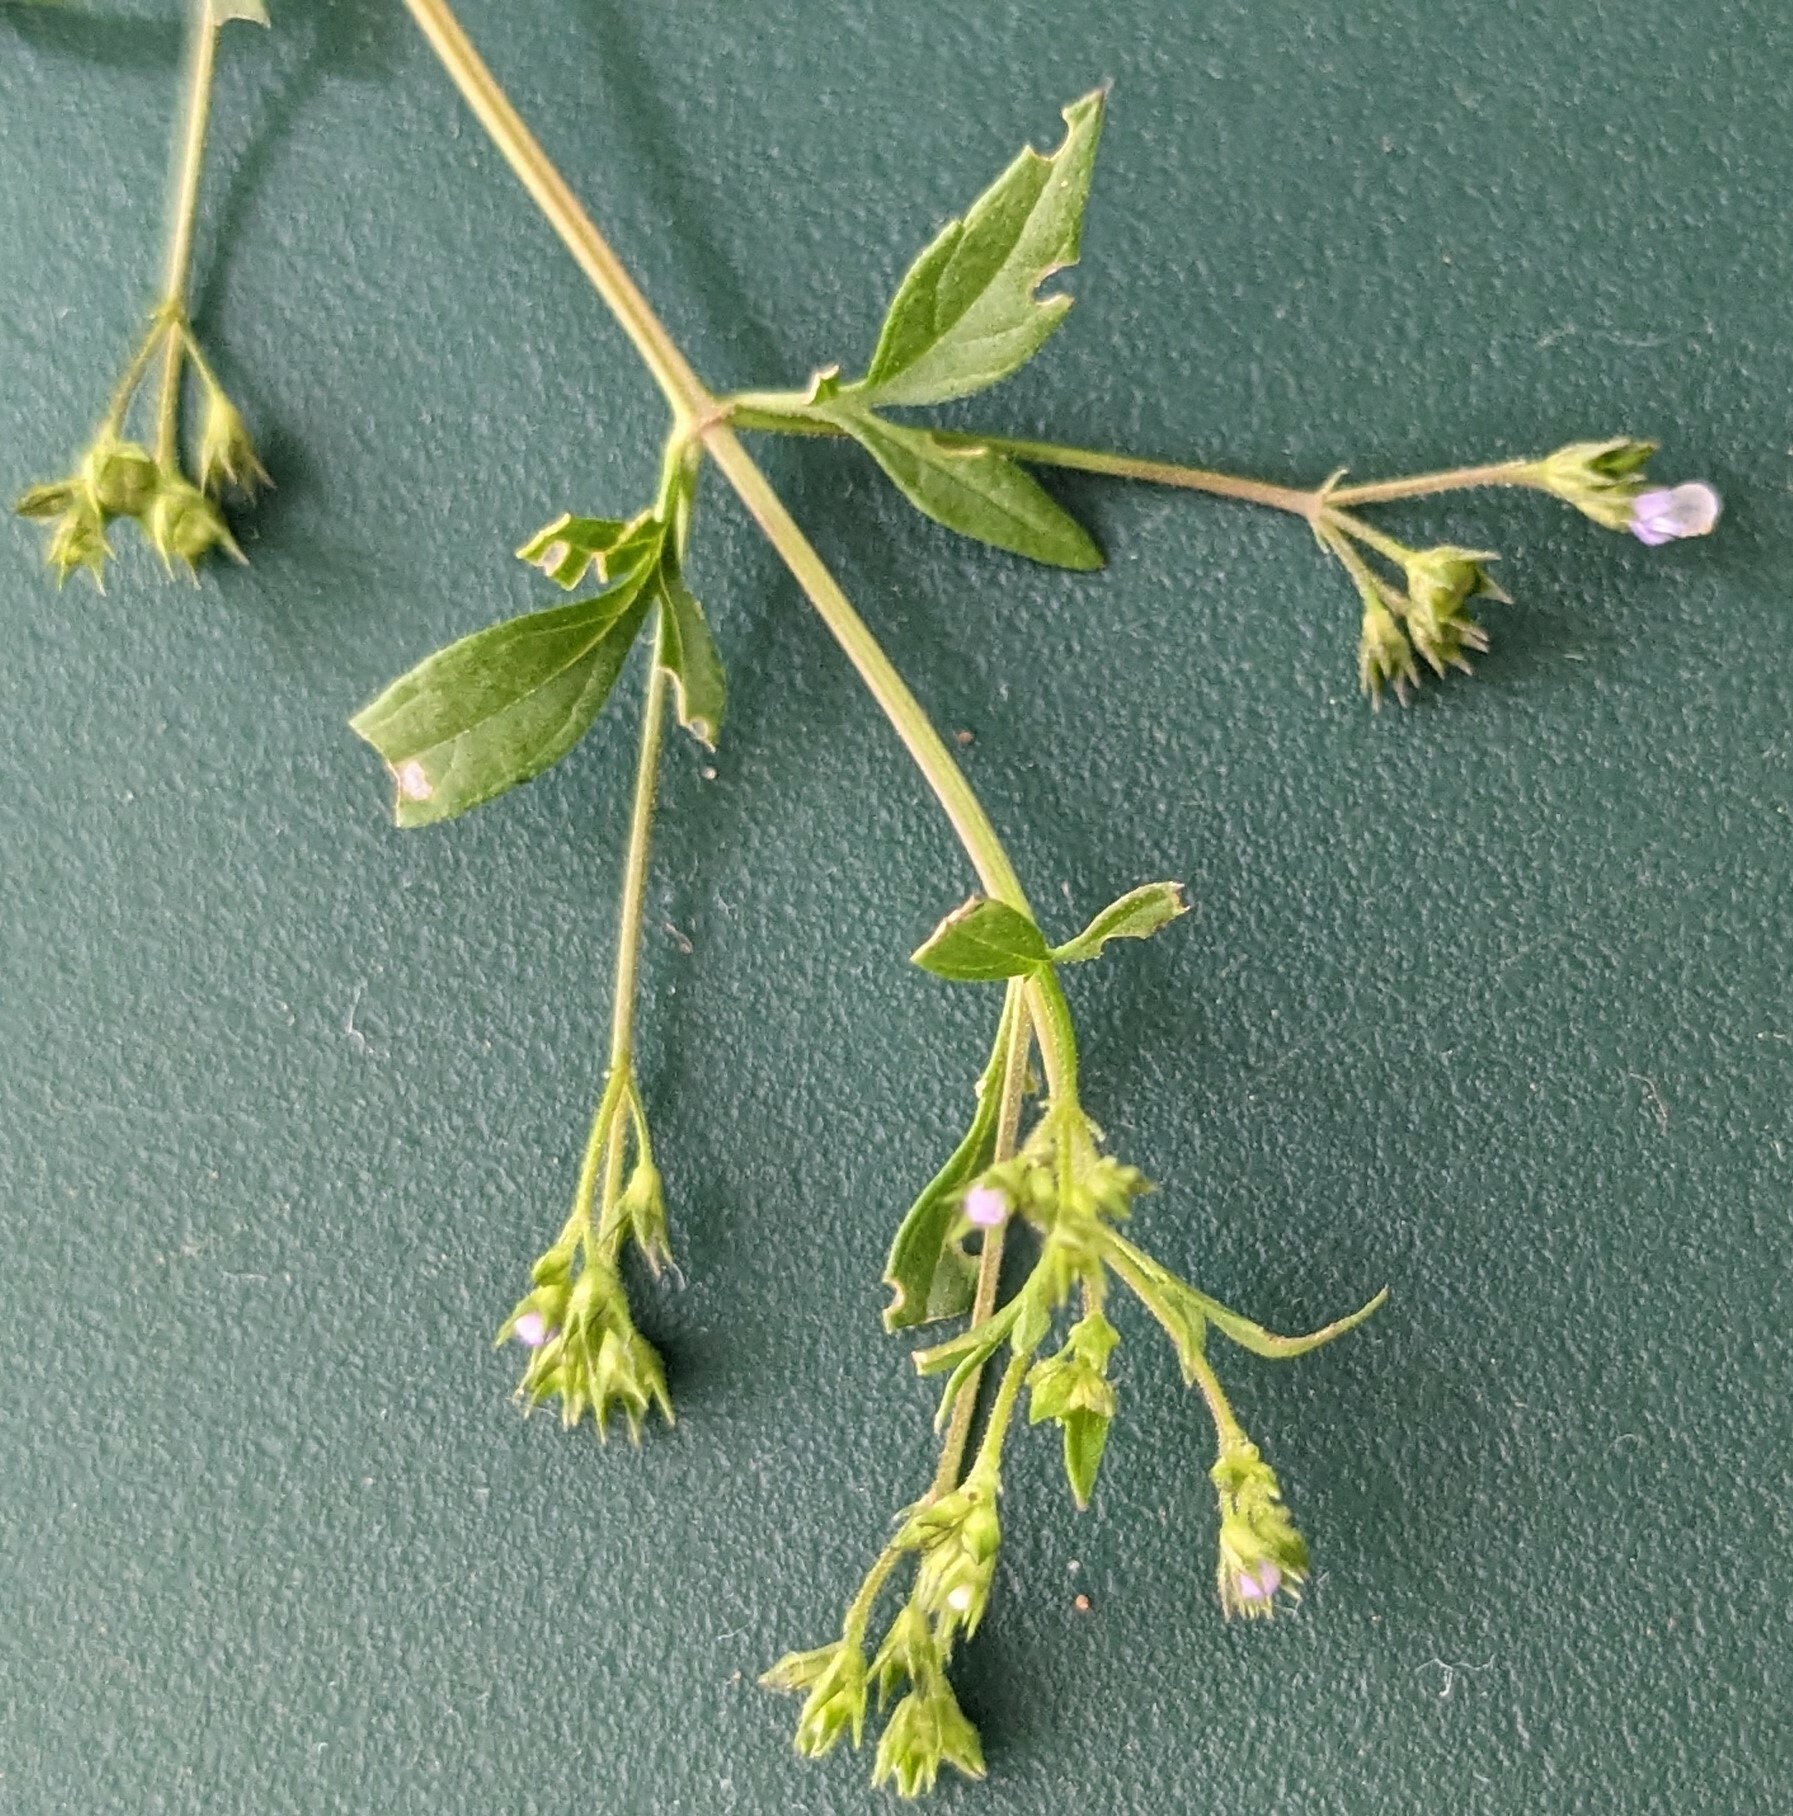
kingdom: Plantae
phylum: Tracheophyta
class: Magnoliopsida
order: Lamiales
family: Lamiaceae
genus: Amethystea
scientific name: Amethystea caerulea
